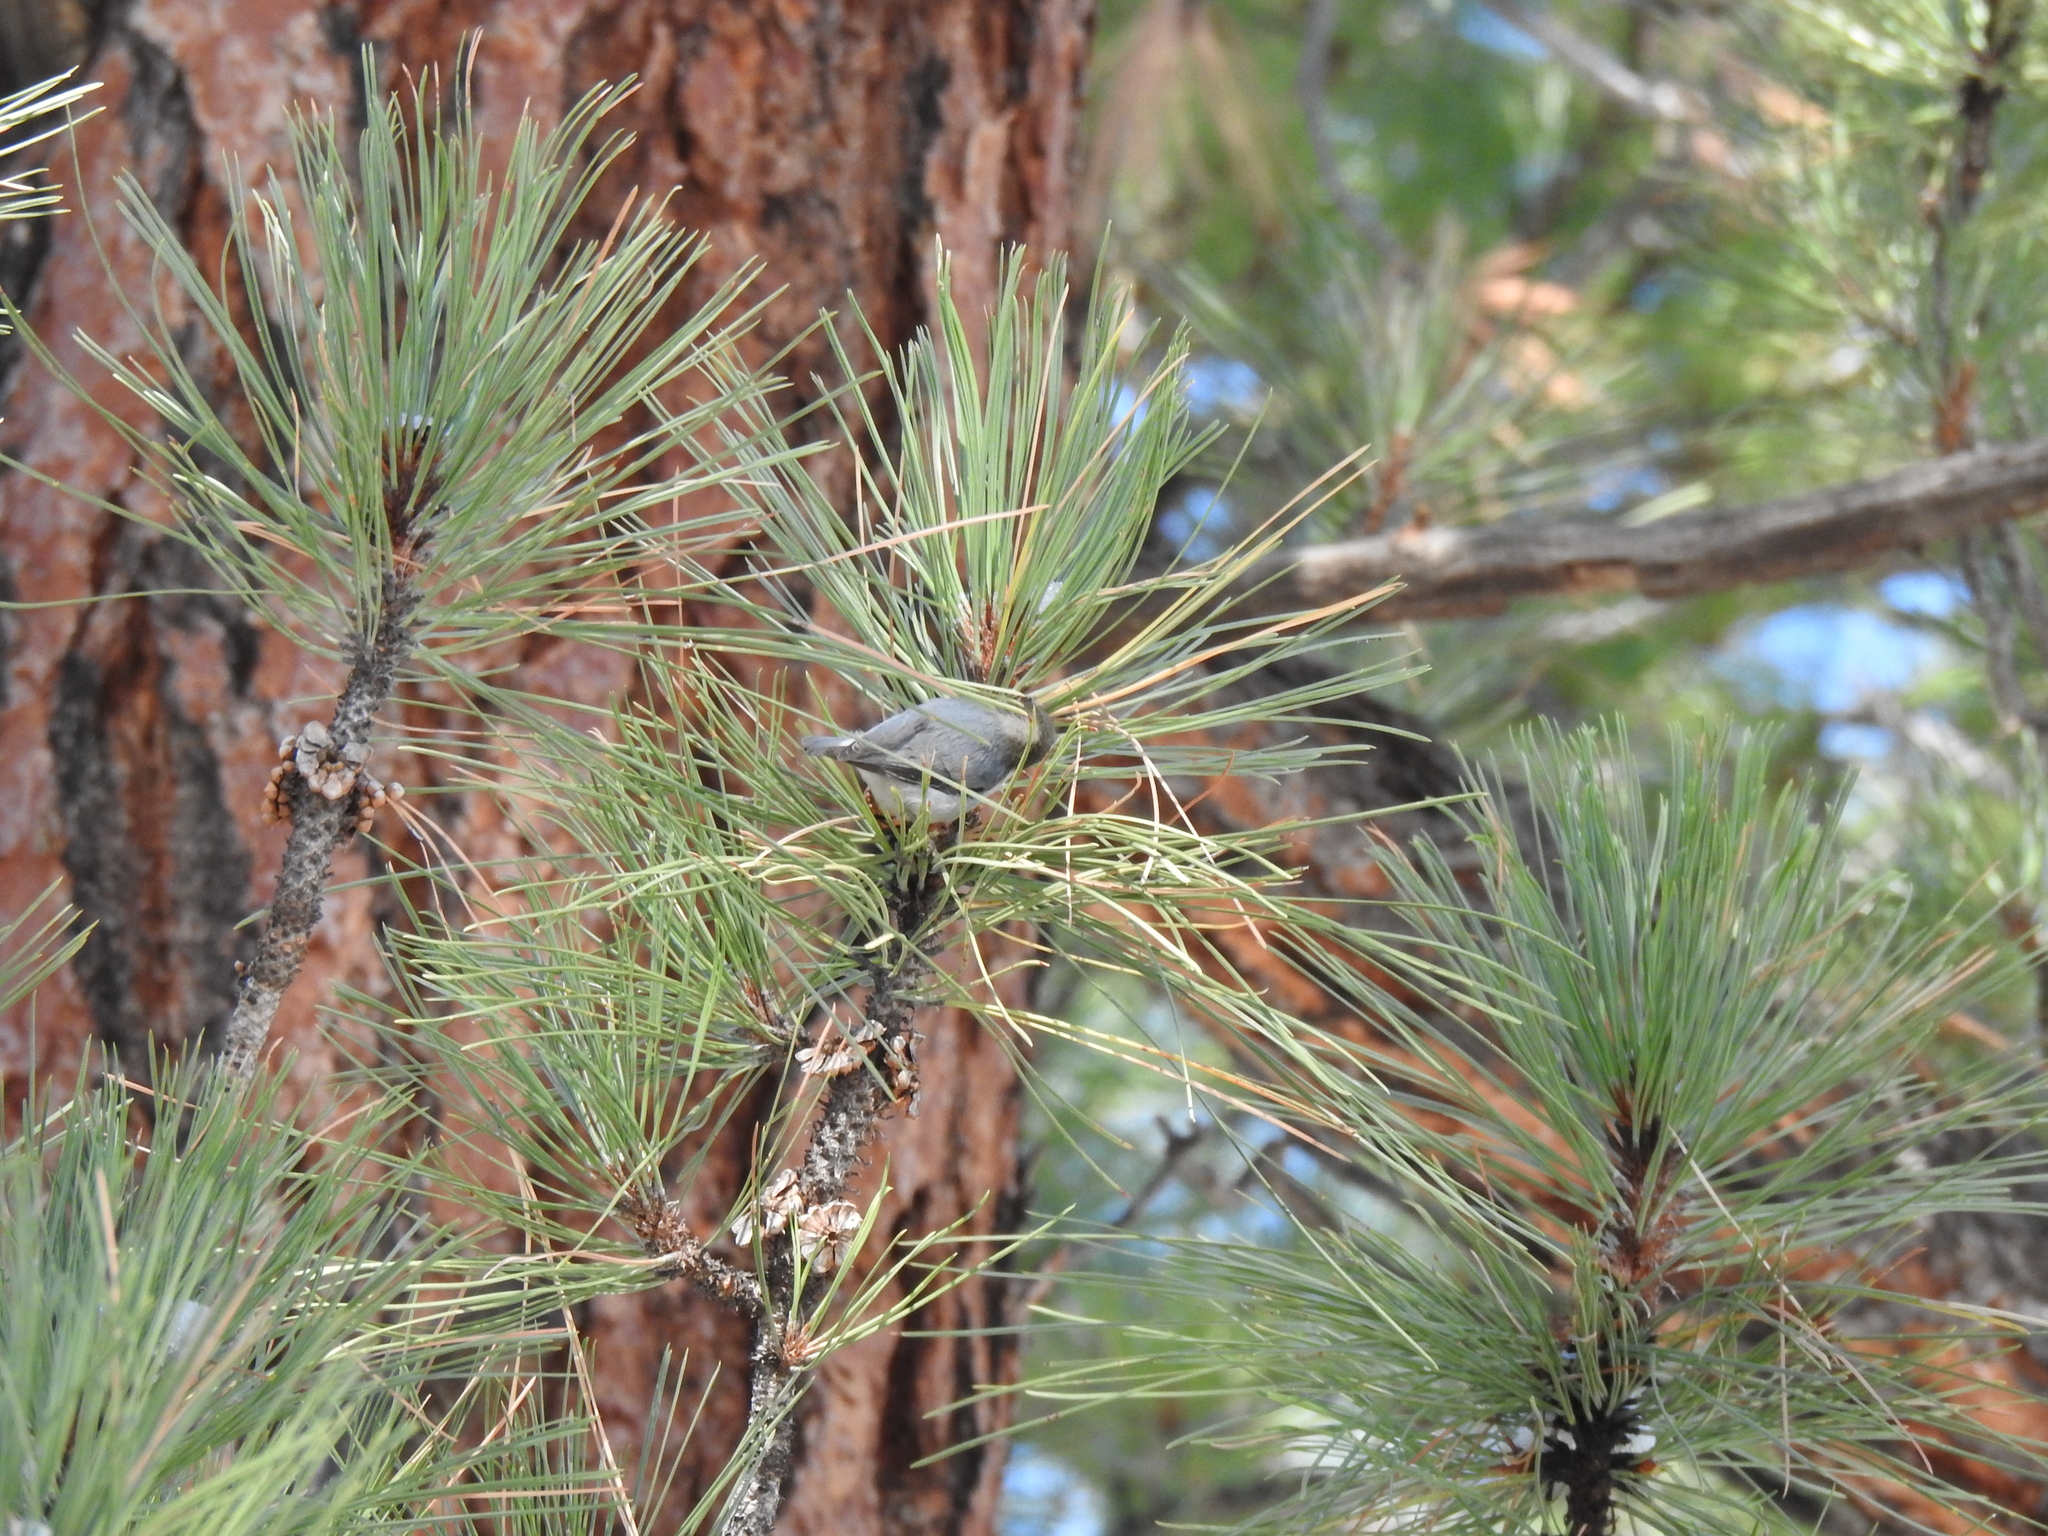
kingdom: Animalia
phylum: Chordata
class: Aves
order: Passeriformes
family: Sittidae
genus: Sitta
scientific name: Sitta pygmaea
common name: Pygmy nuthatch
